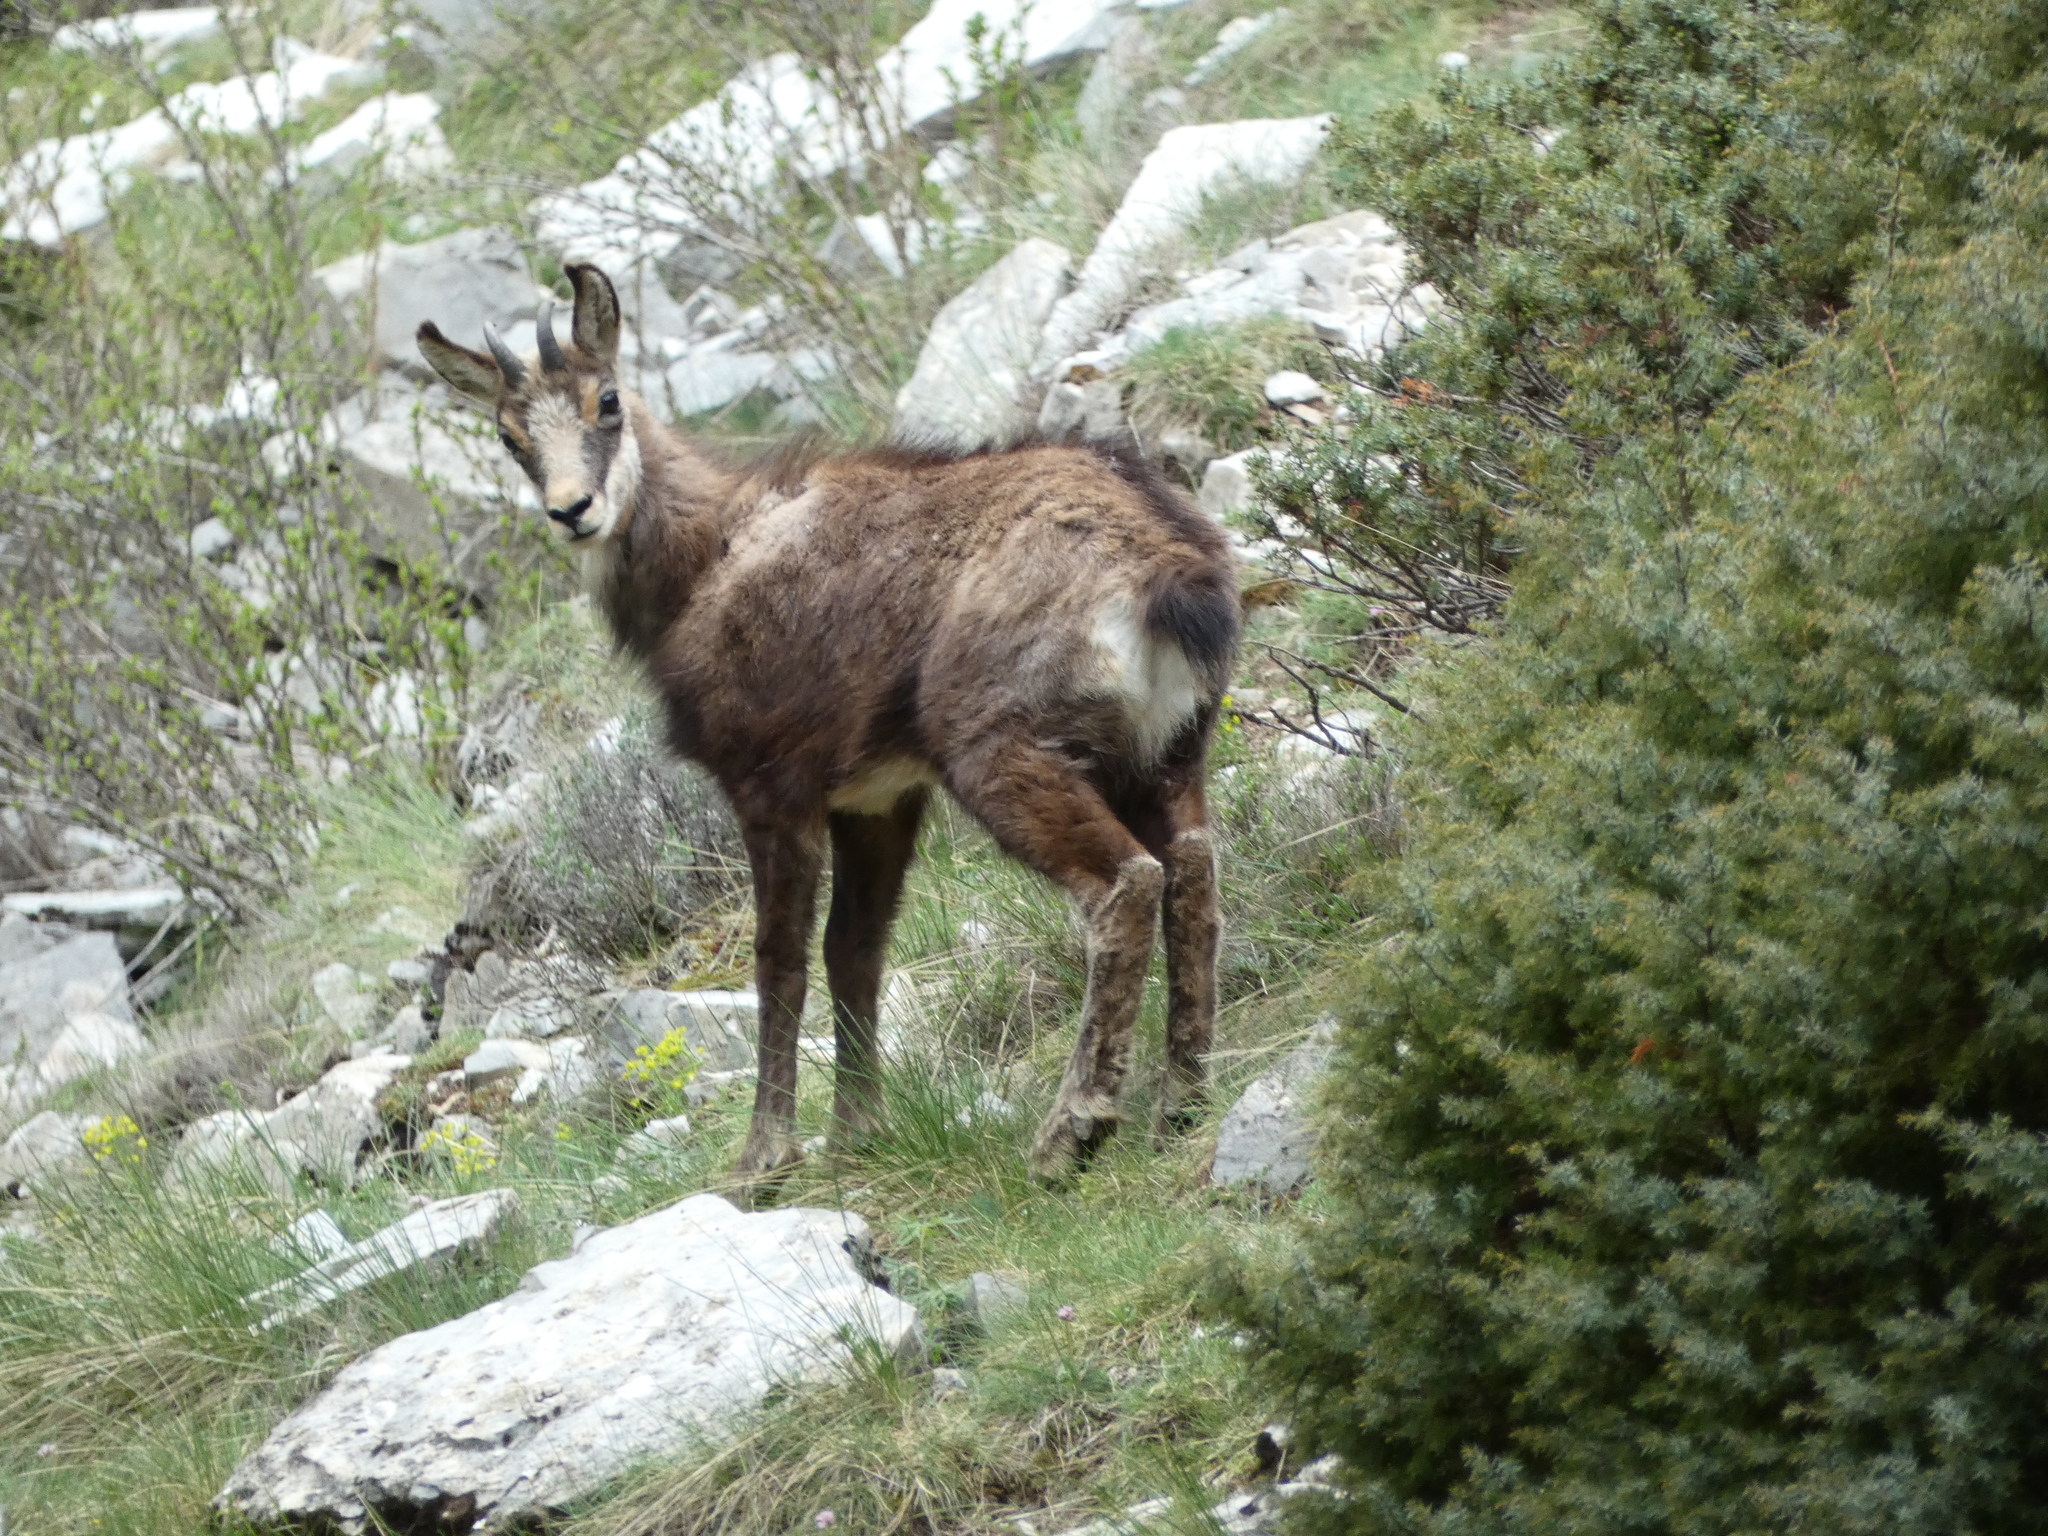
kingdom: Animalia
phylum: Chordata
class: Mammalia
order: Artiodactyla
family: Bovidae
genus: Rupicapra
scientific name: Rupicapra rupicapra
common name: Chamois
